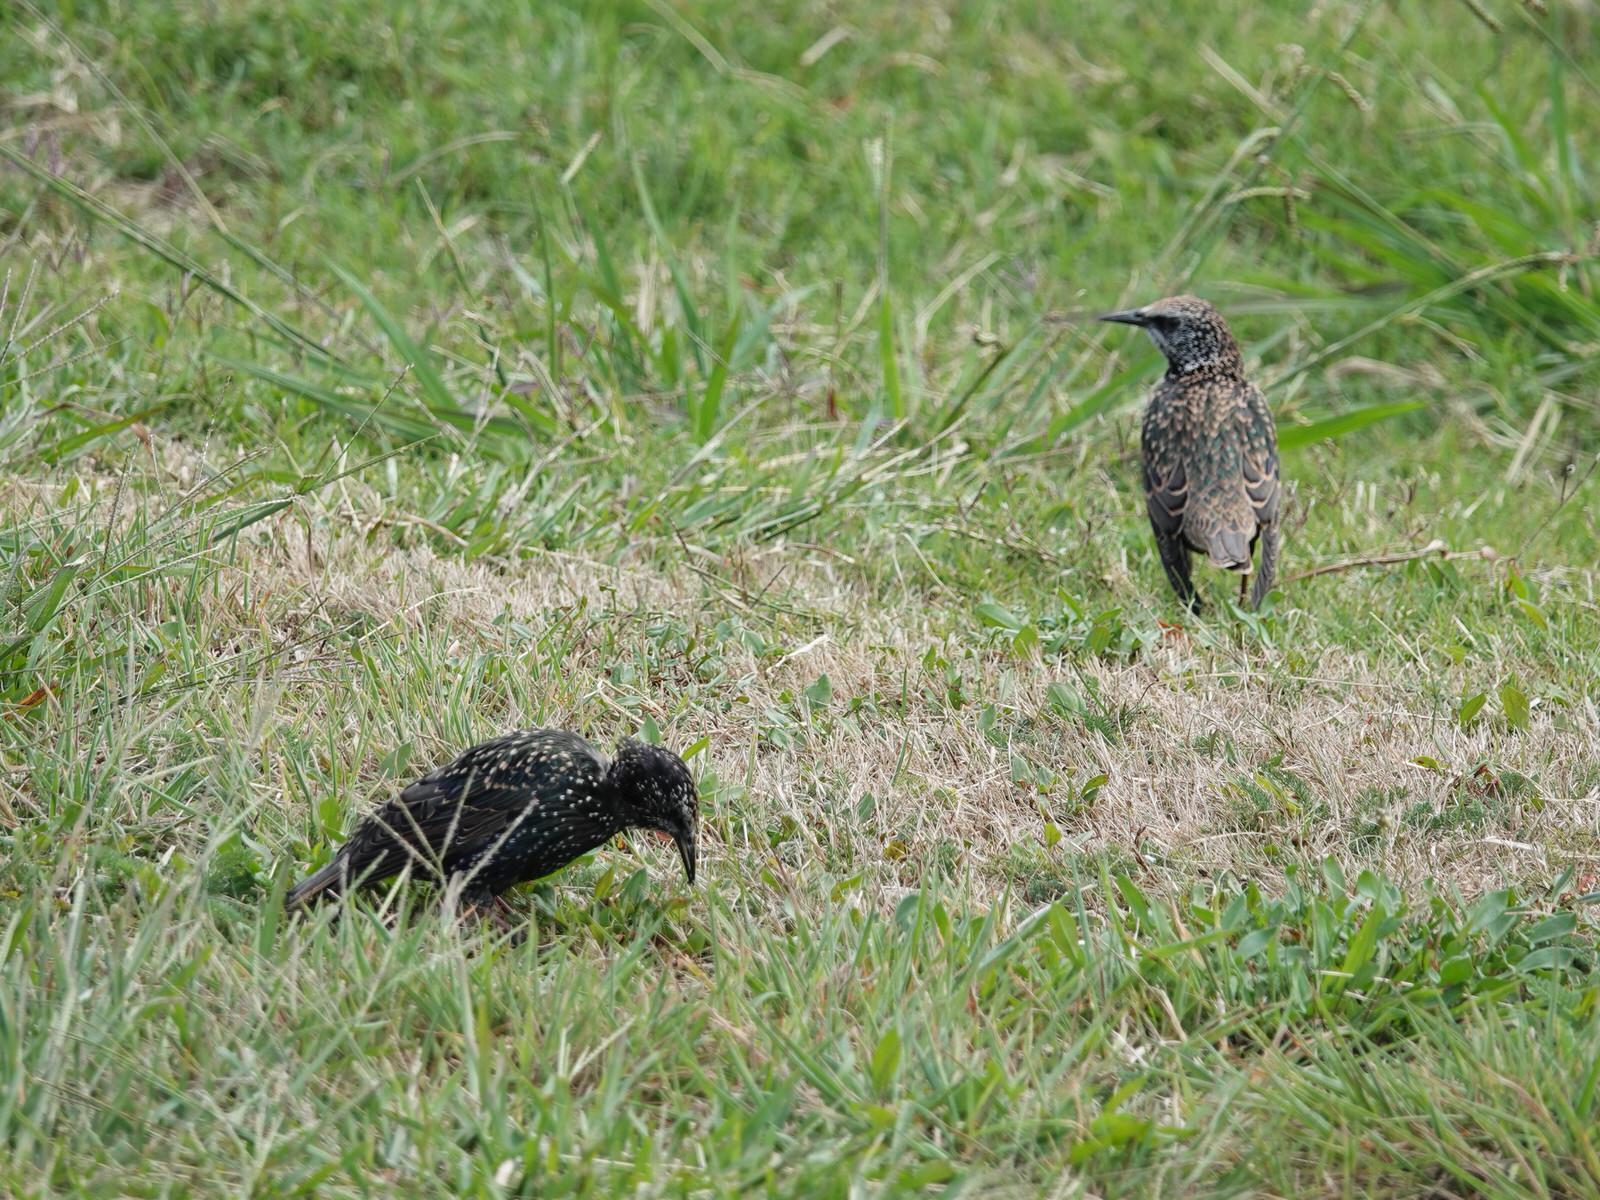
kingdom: Animalia
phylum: Chordata
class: Aves
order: Passeriformes
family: Sturnidae
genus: Sturnus
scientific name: Sturnus vulgaris
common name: Common starling
